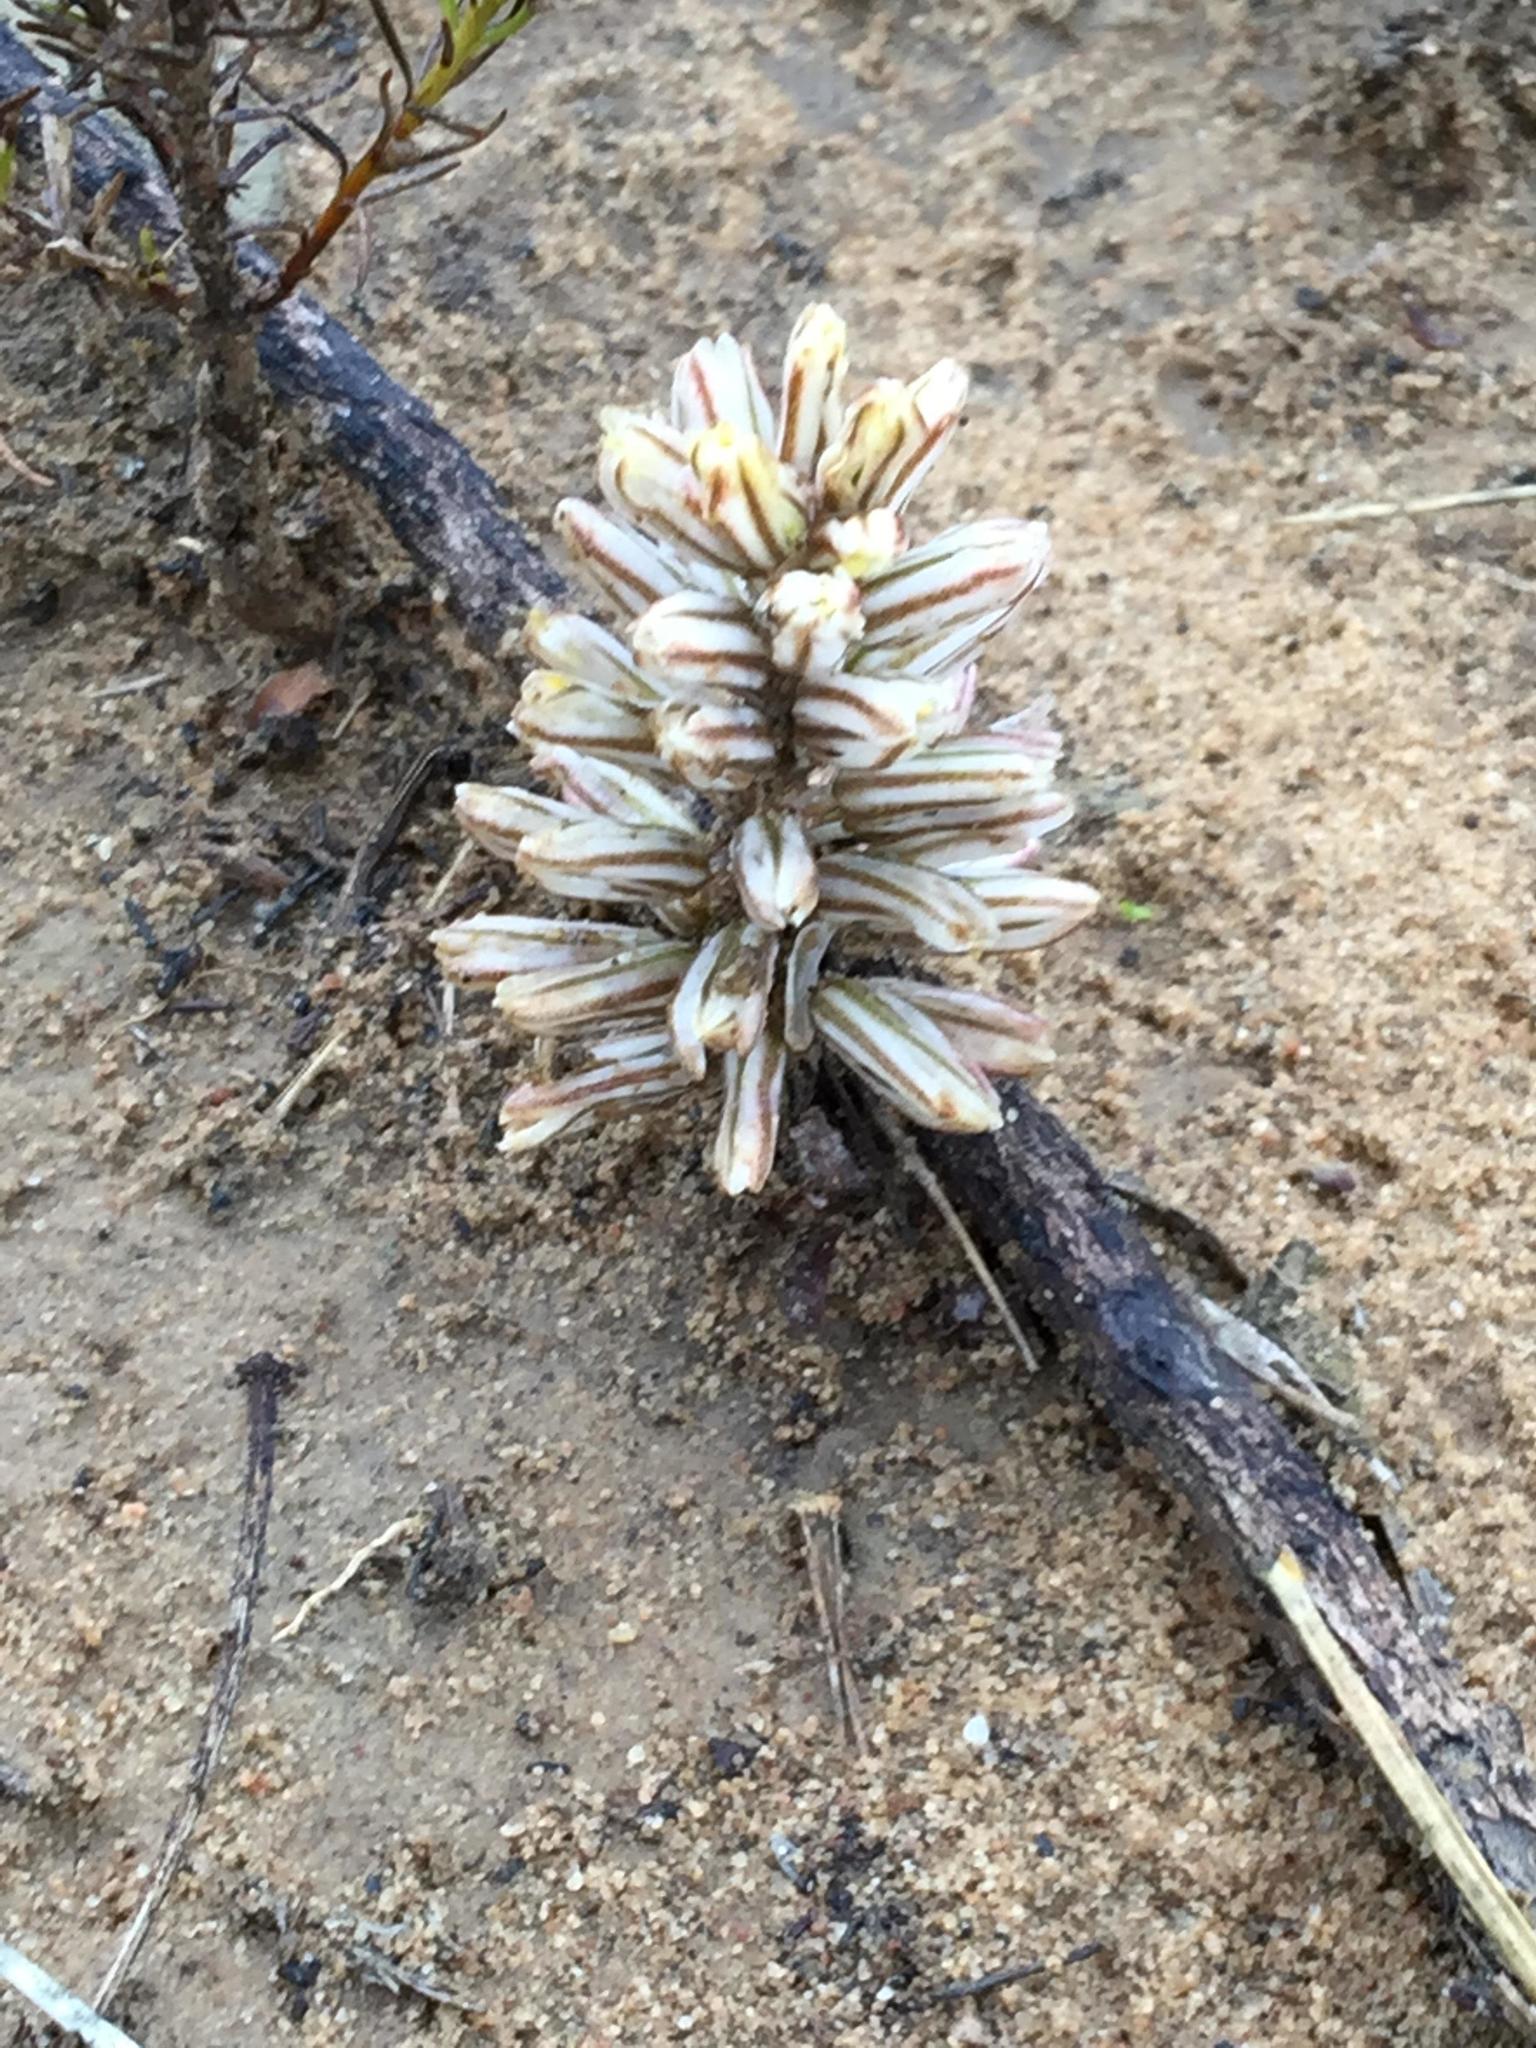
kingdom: Plantae
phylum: Tracheophyta
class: Liliopsida
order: Asparagales
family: Asparagaceae
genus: Eriospermum
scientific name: Eriospermum paradoxum
